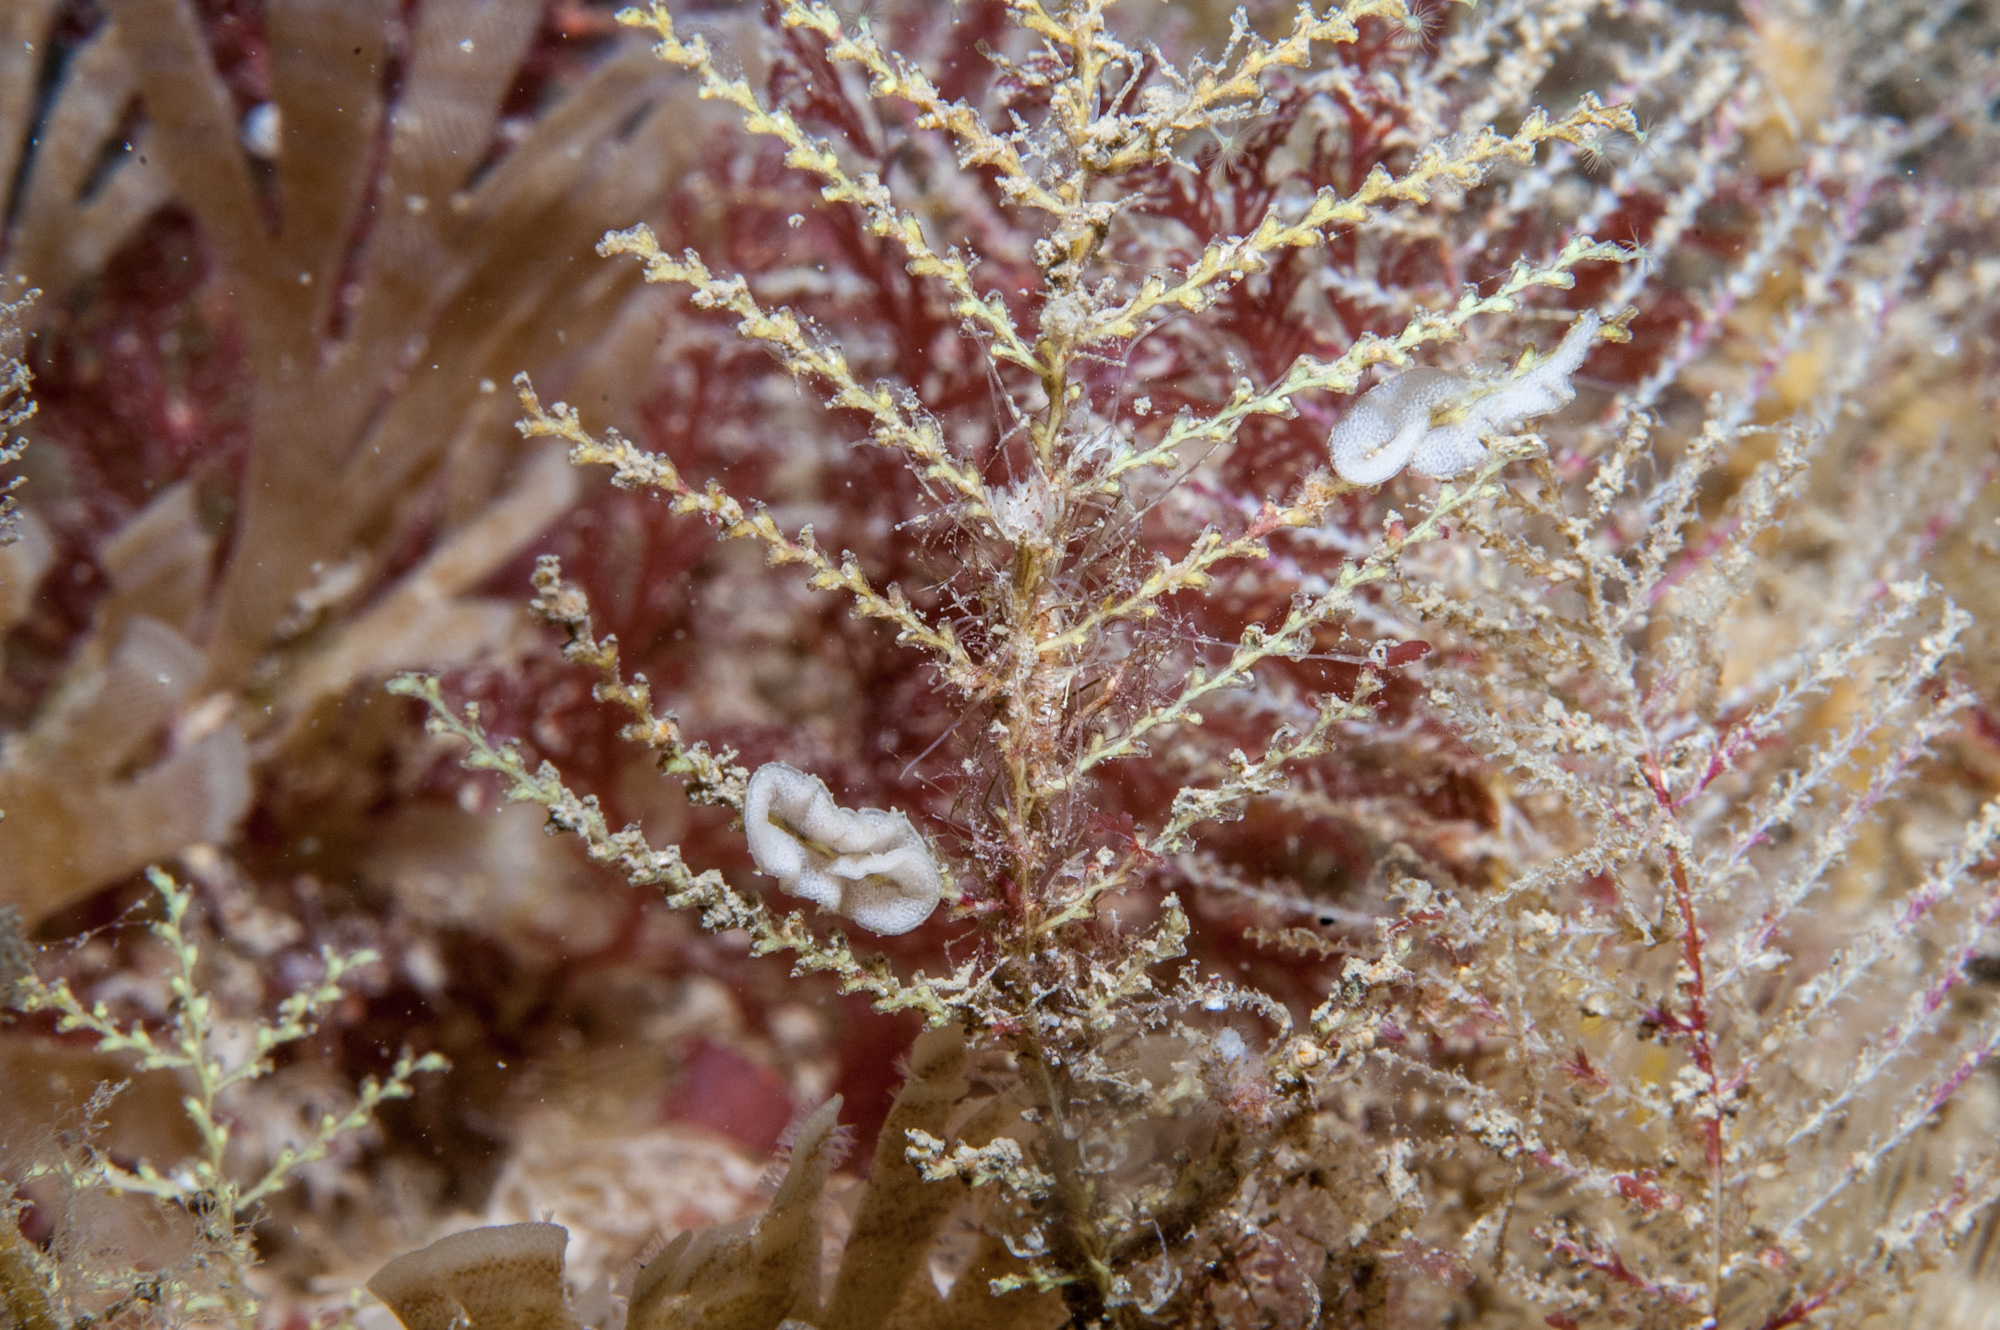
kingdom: Animalia
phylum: Cnidaria
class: Hydrozoa
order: Leptothecata
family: Sertularellidae
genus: Sertularella
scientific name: Sertularella gayi
